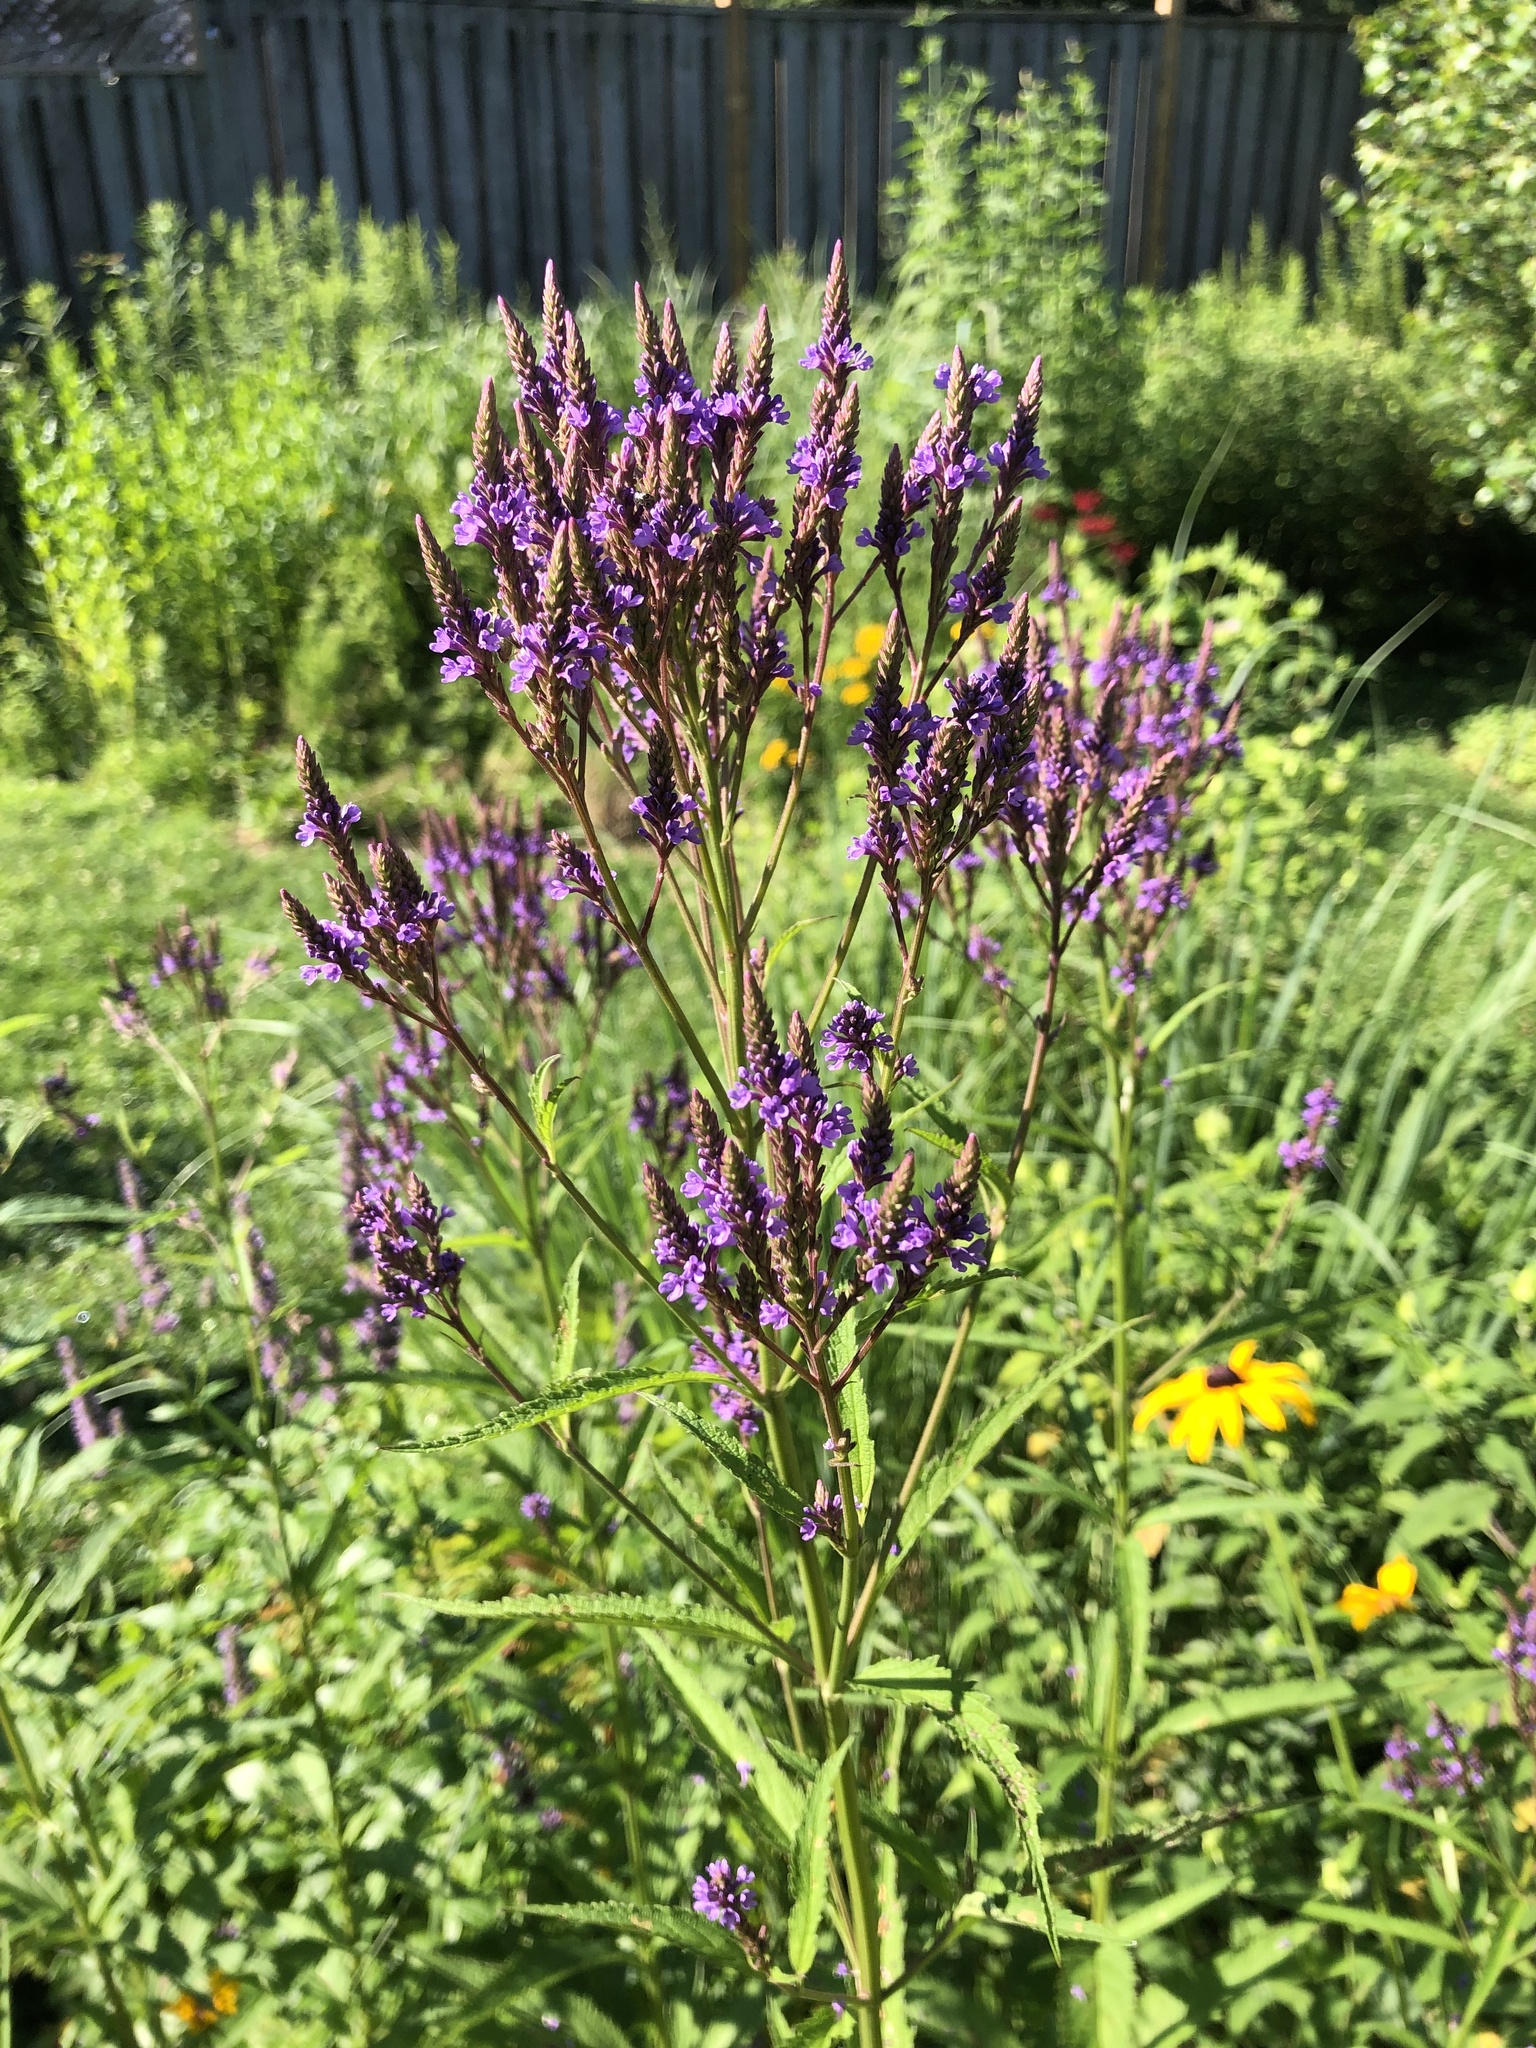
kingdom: Plantae
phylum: Tracheophyta
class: Magnoliopsida
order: Lamiales
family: Verbenaceae
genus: Verbena
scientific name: Verbena hastata
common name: American blue vervain
